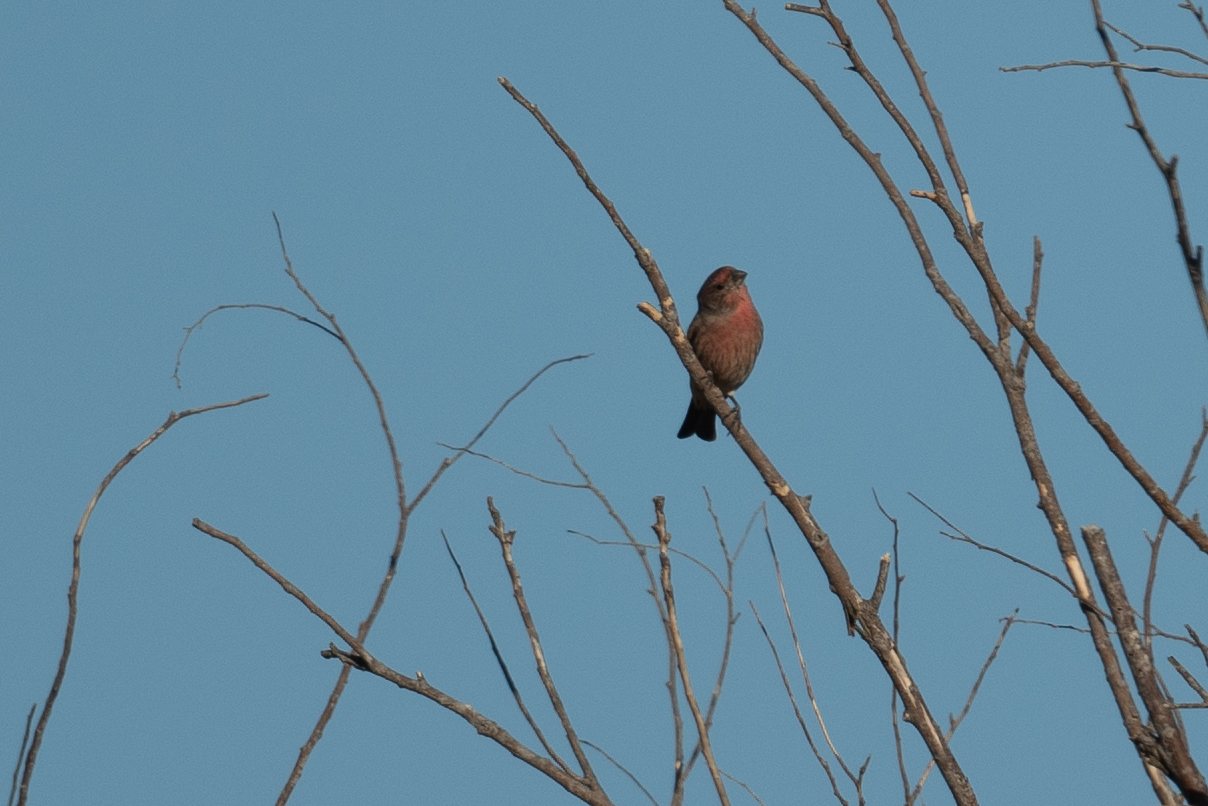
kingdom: Animalia
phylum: Chordata
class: Aves
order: Passeriformes
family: Fringillidae
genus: Haemorhous
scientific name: Haemorhous mexicanus
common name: House finch
